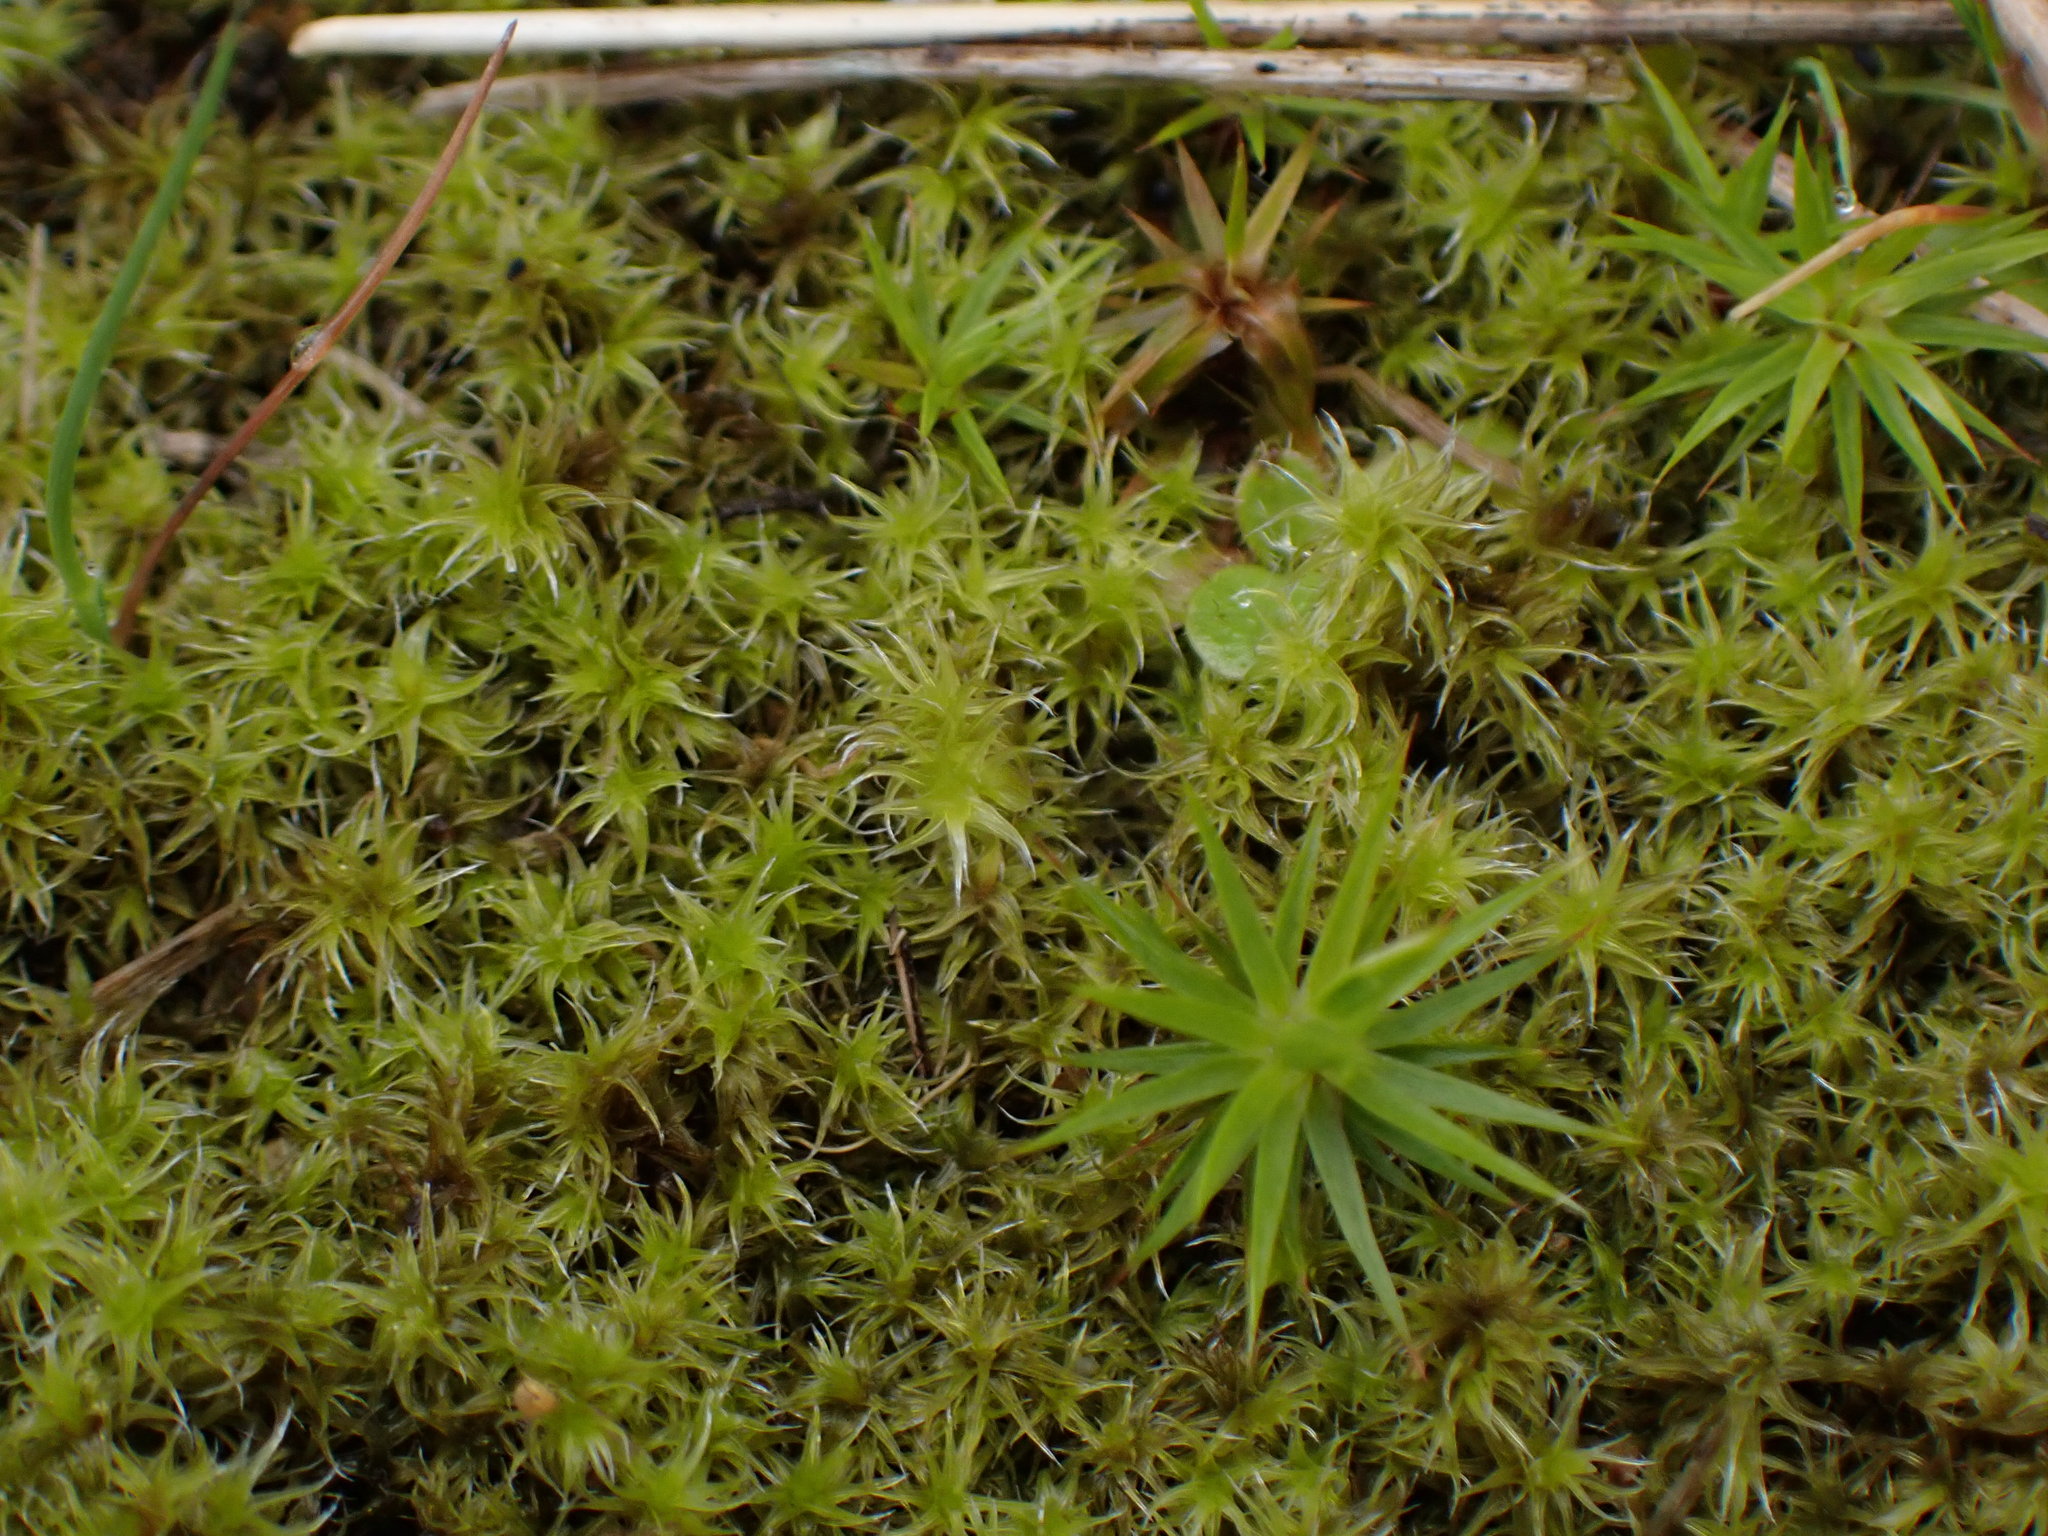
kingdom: Plantae
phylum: Bryophyta
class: Bryopsida
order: Grimmiales
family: Grimmiaceae
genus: Niphotrichum
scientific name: Niphotrichum elongatum
